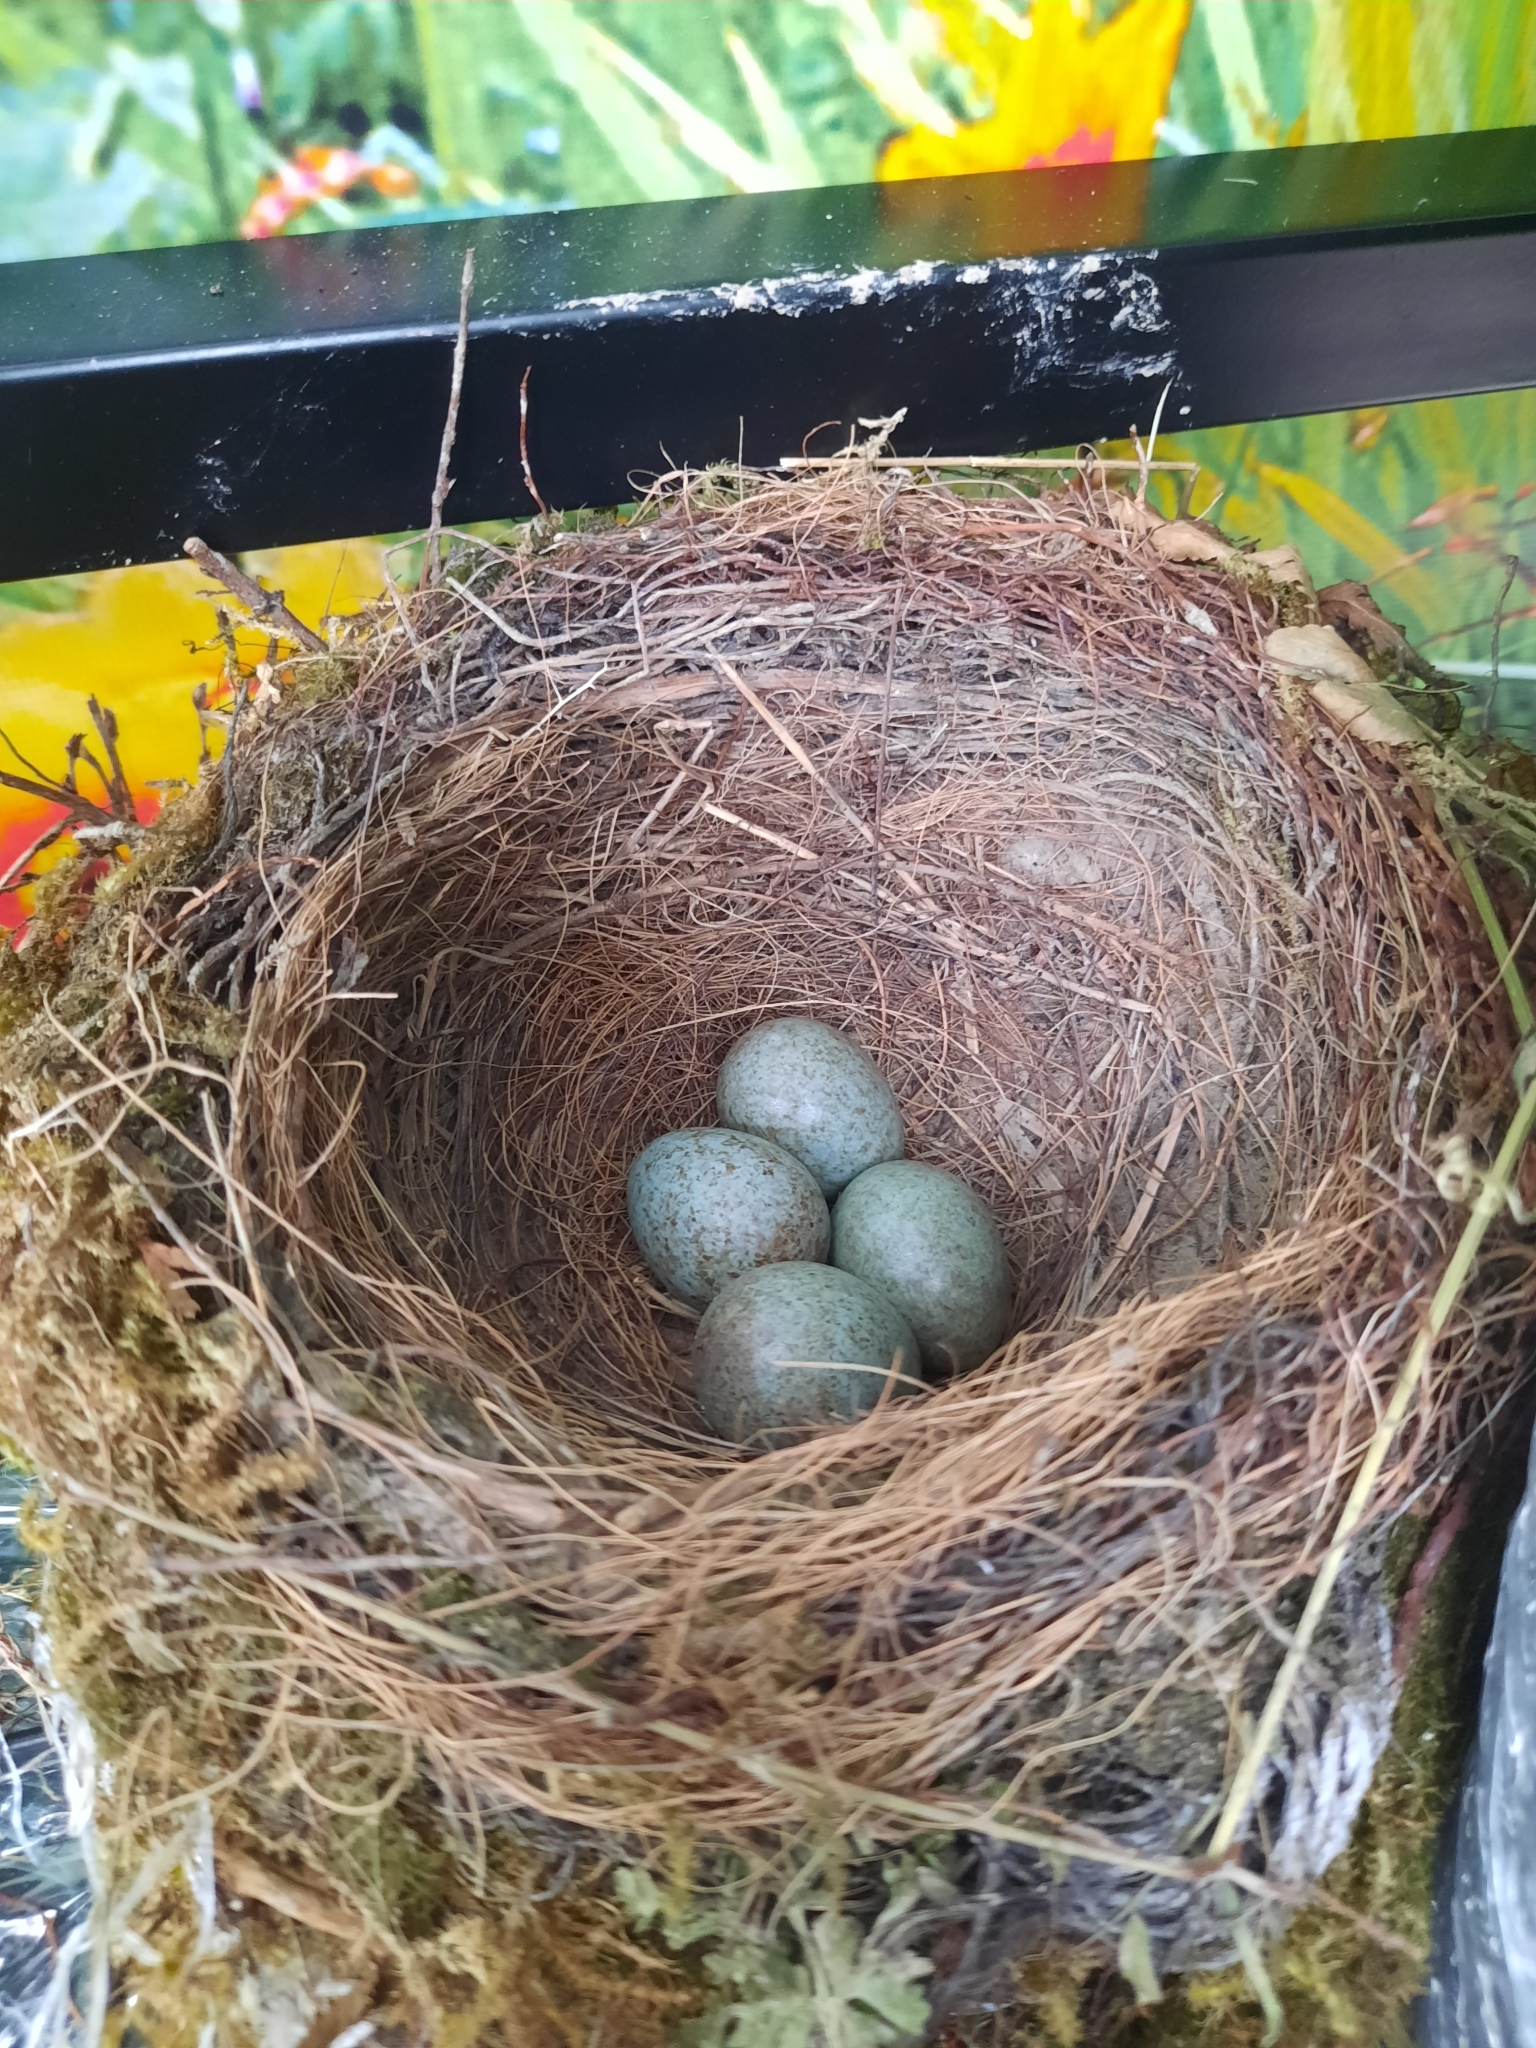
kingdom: Animalia
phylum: Chordata
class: Aves
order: Passeriformes
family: Turdidae
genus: Turdus
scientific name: Turdus merula
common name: Common blackbird
